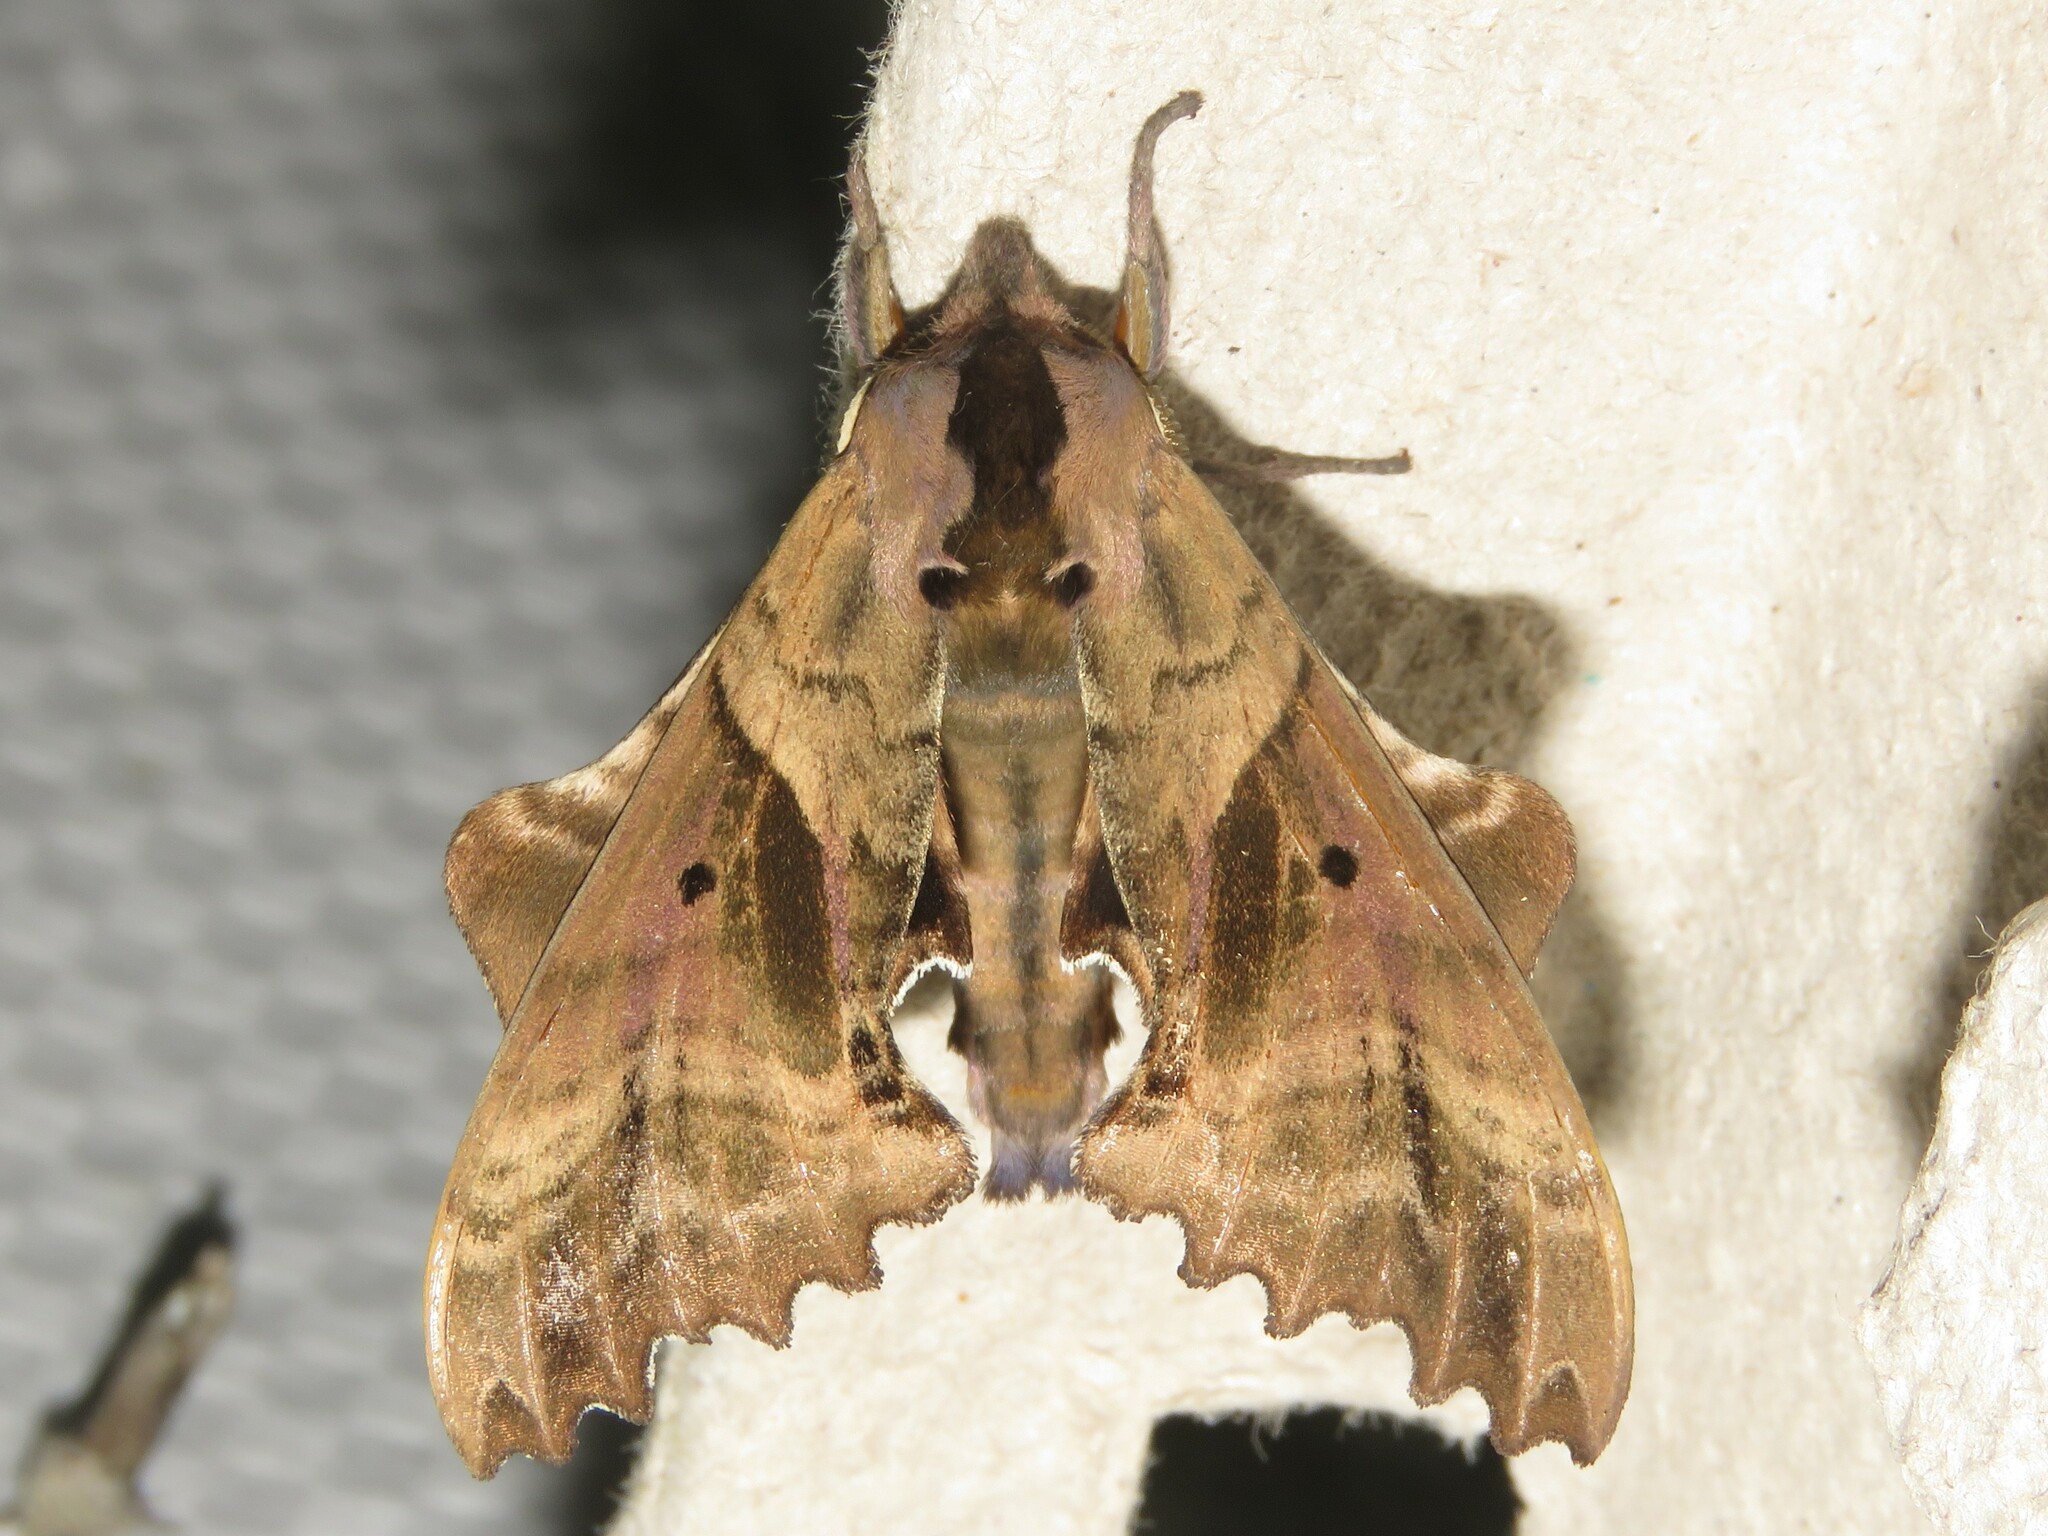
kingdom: Animalia
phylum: Arthropoda
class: Insecta
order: Lepidoptera
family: Sphingidae
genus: Paonias
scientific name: Paonias excaecata
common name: Blind-eyed sphinx
